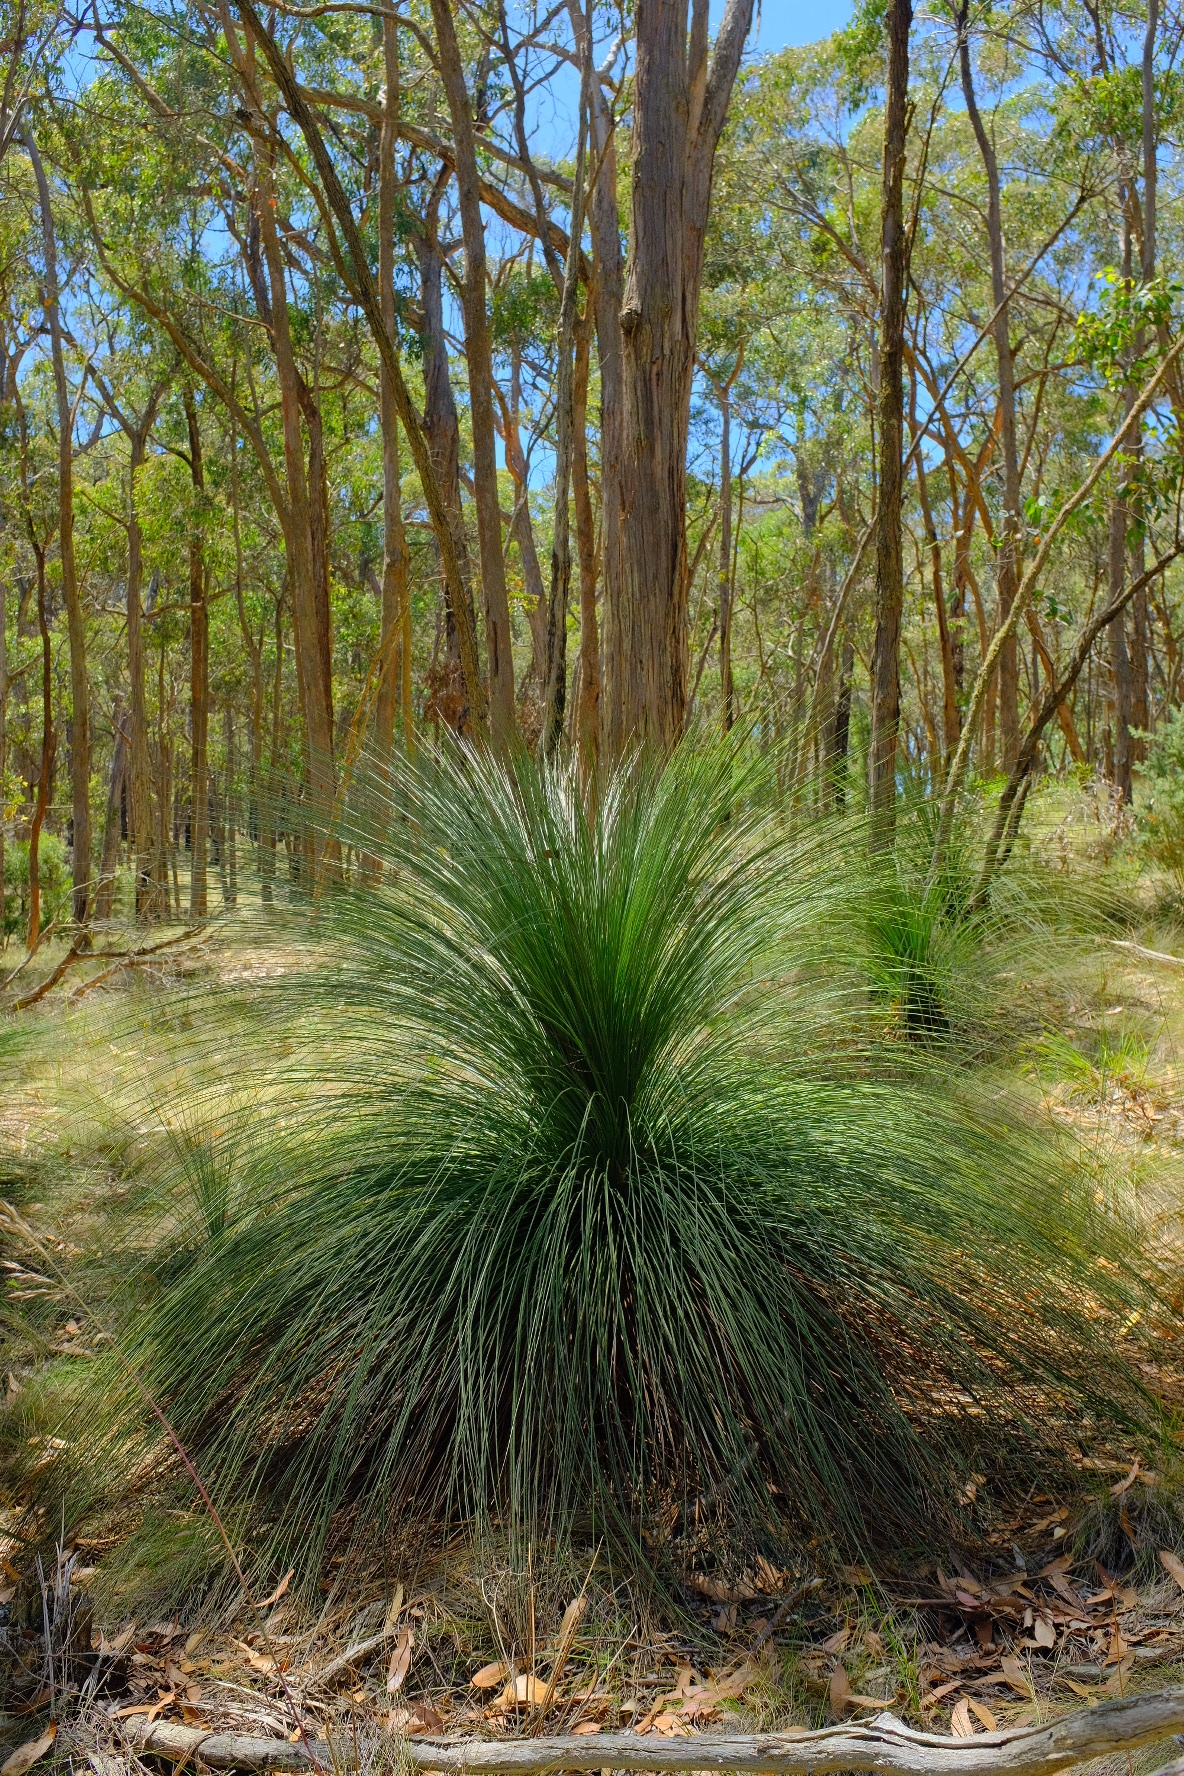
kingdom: Plantae
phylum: Tracheophyta
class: Liliopsida
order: Asparagales
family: Asphodelaceae
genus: Xanthorrhoea
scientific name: Xanthorrhoea australis
